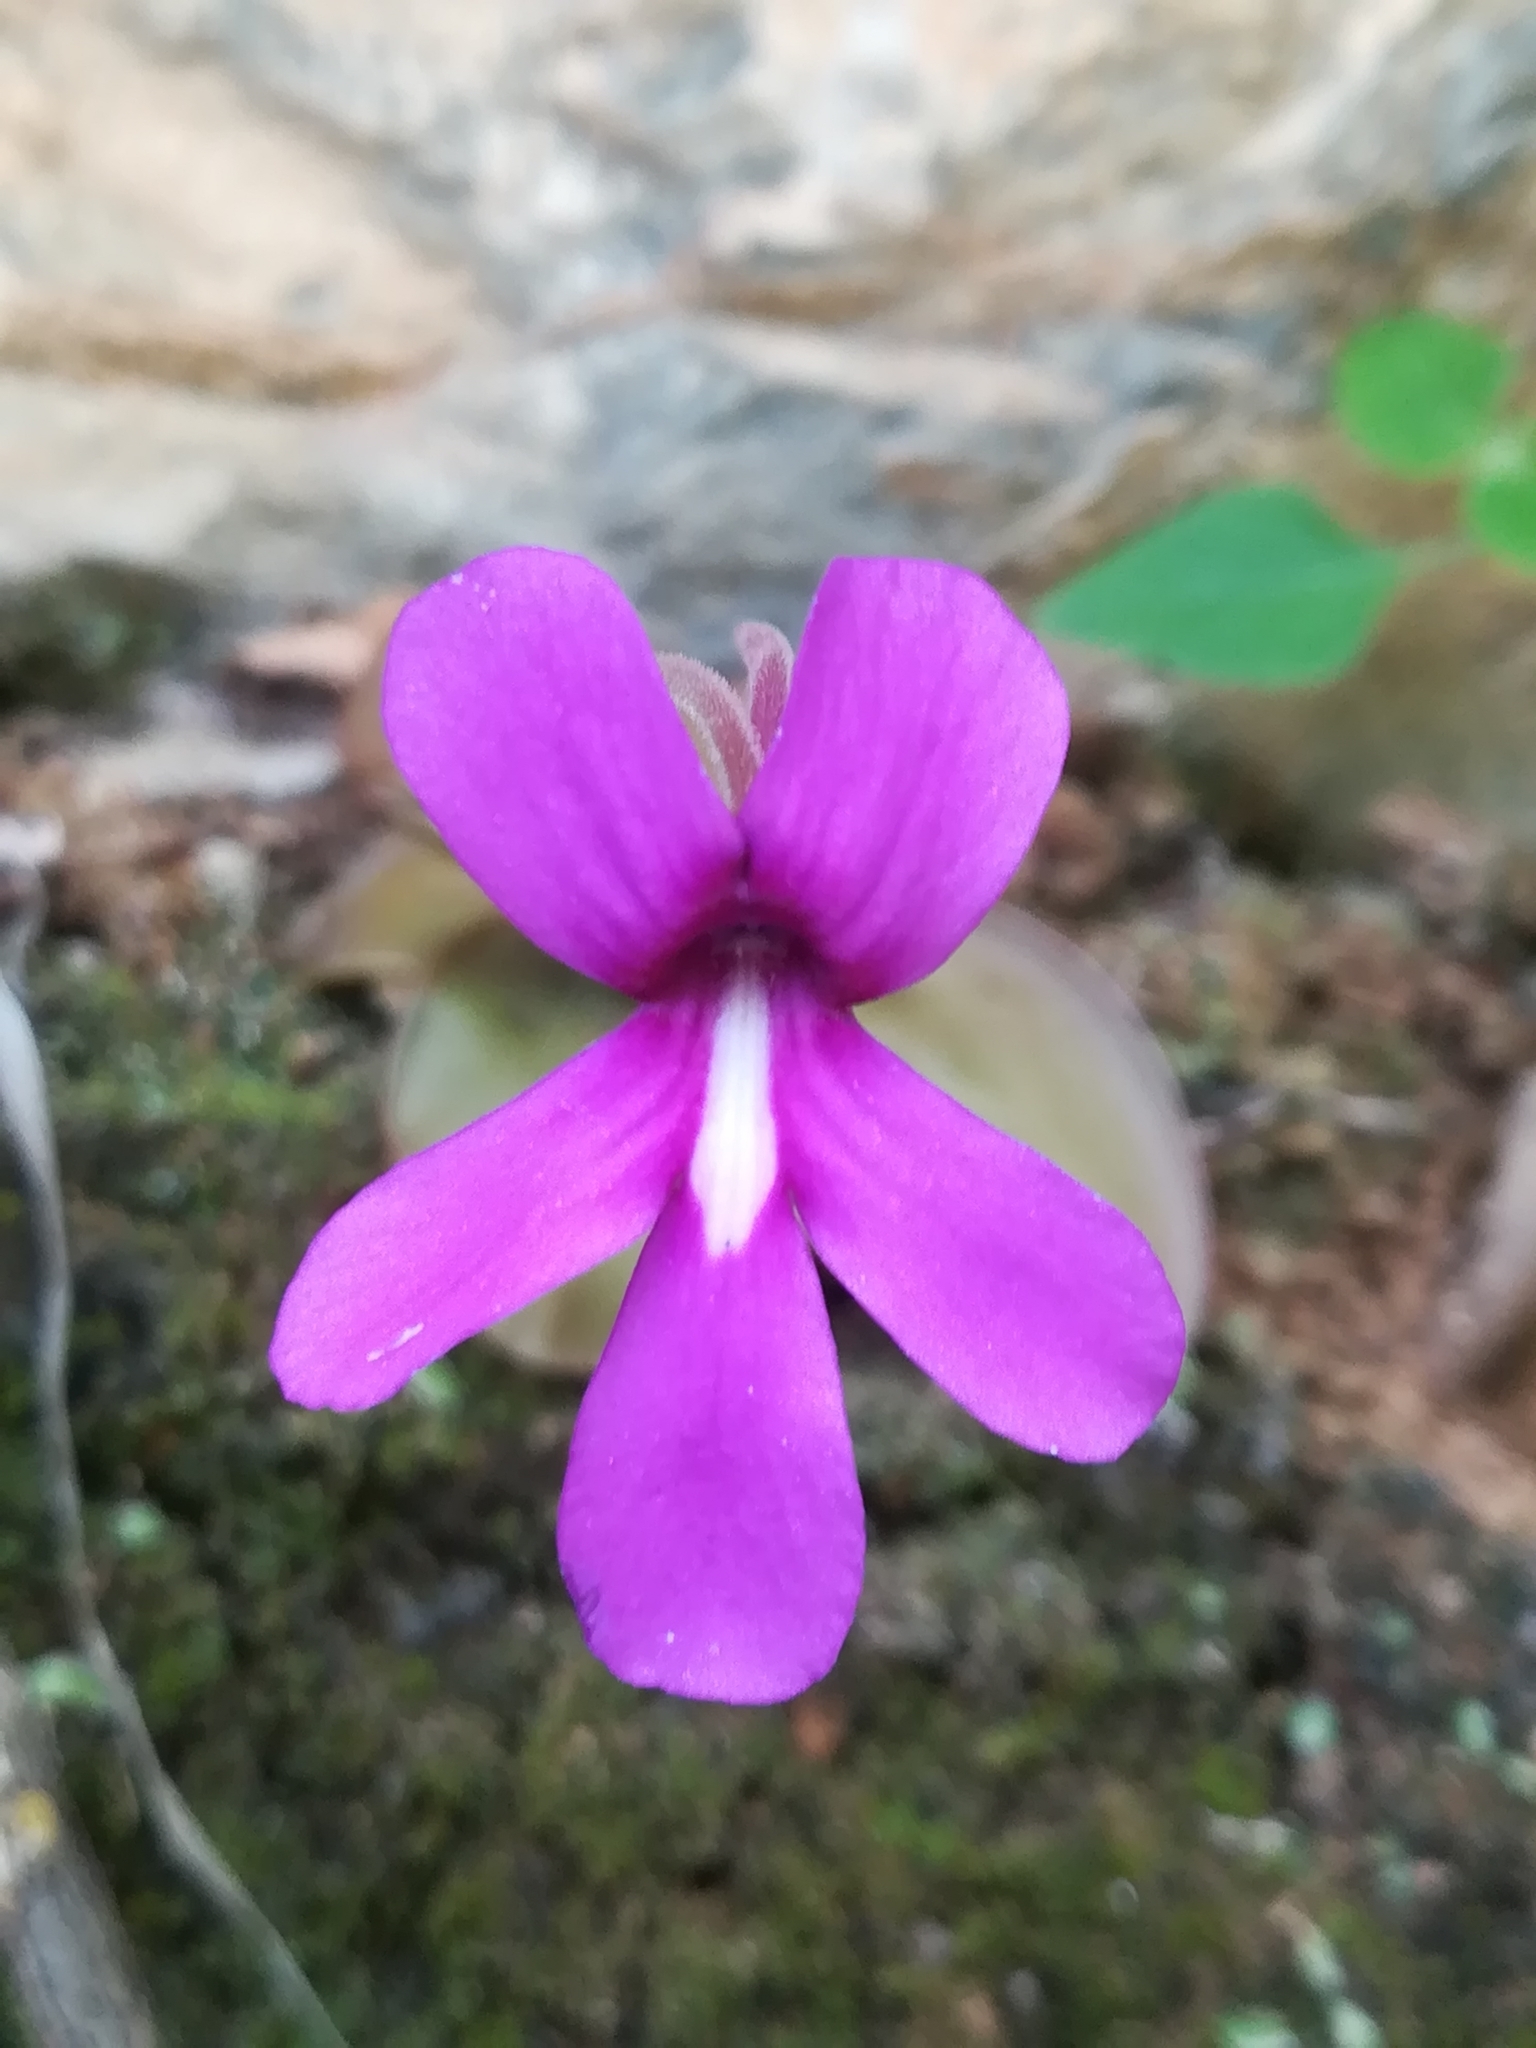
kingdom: Plantae
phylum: Tracheophyta
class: Magnoliopsida
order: Lamiales
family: Lentibulariaceae
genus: Pinguicula
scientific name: Pinguicula moranensis
